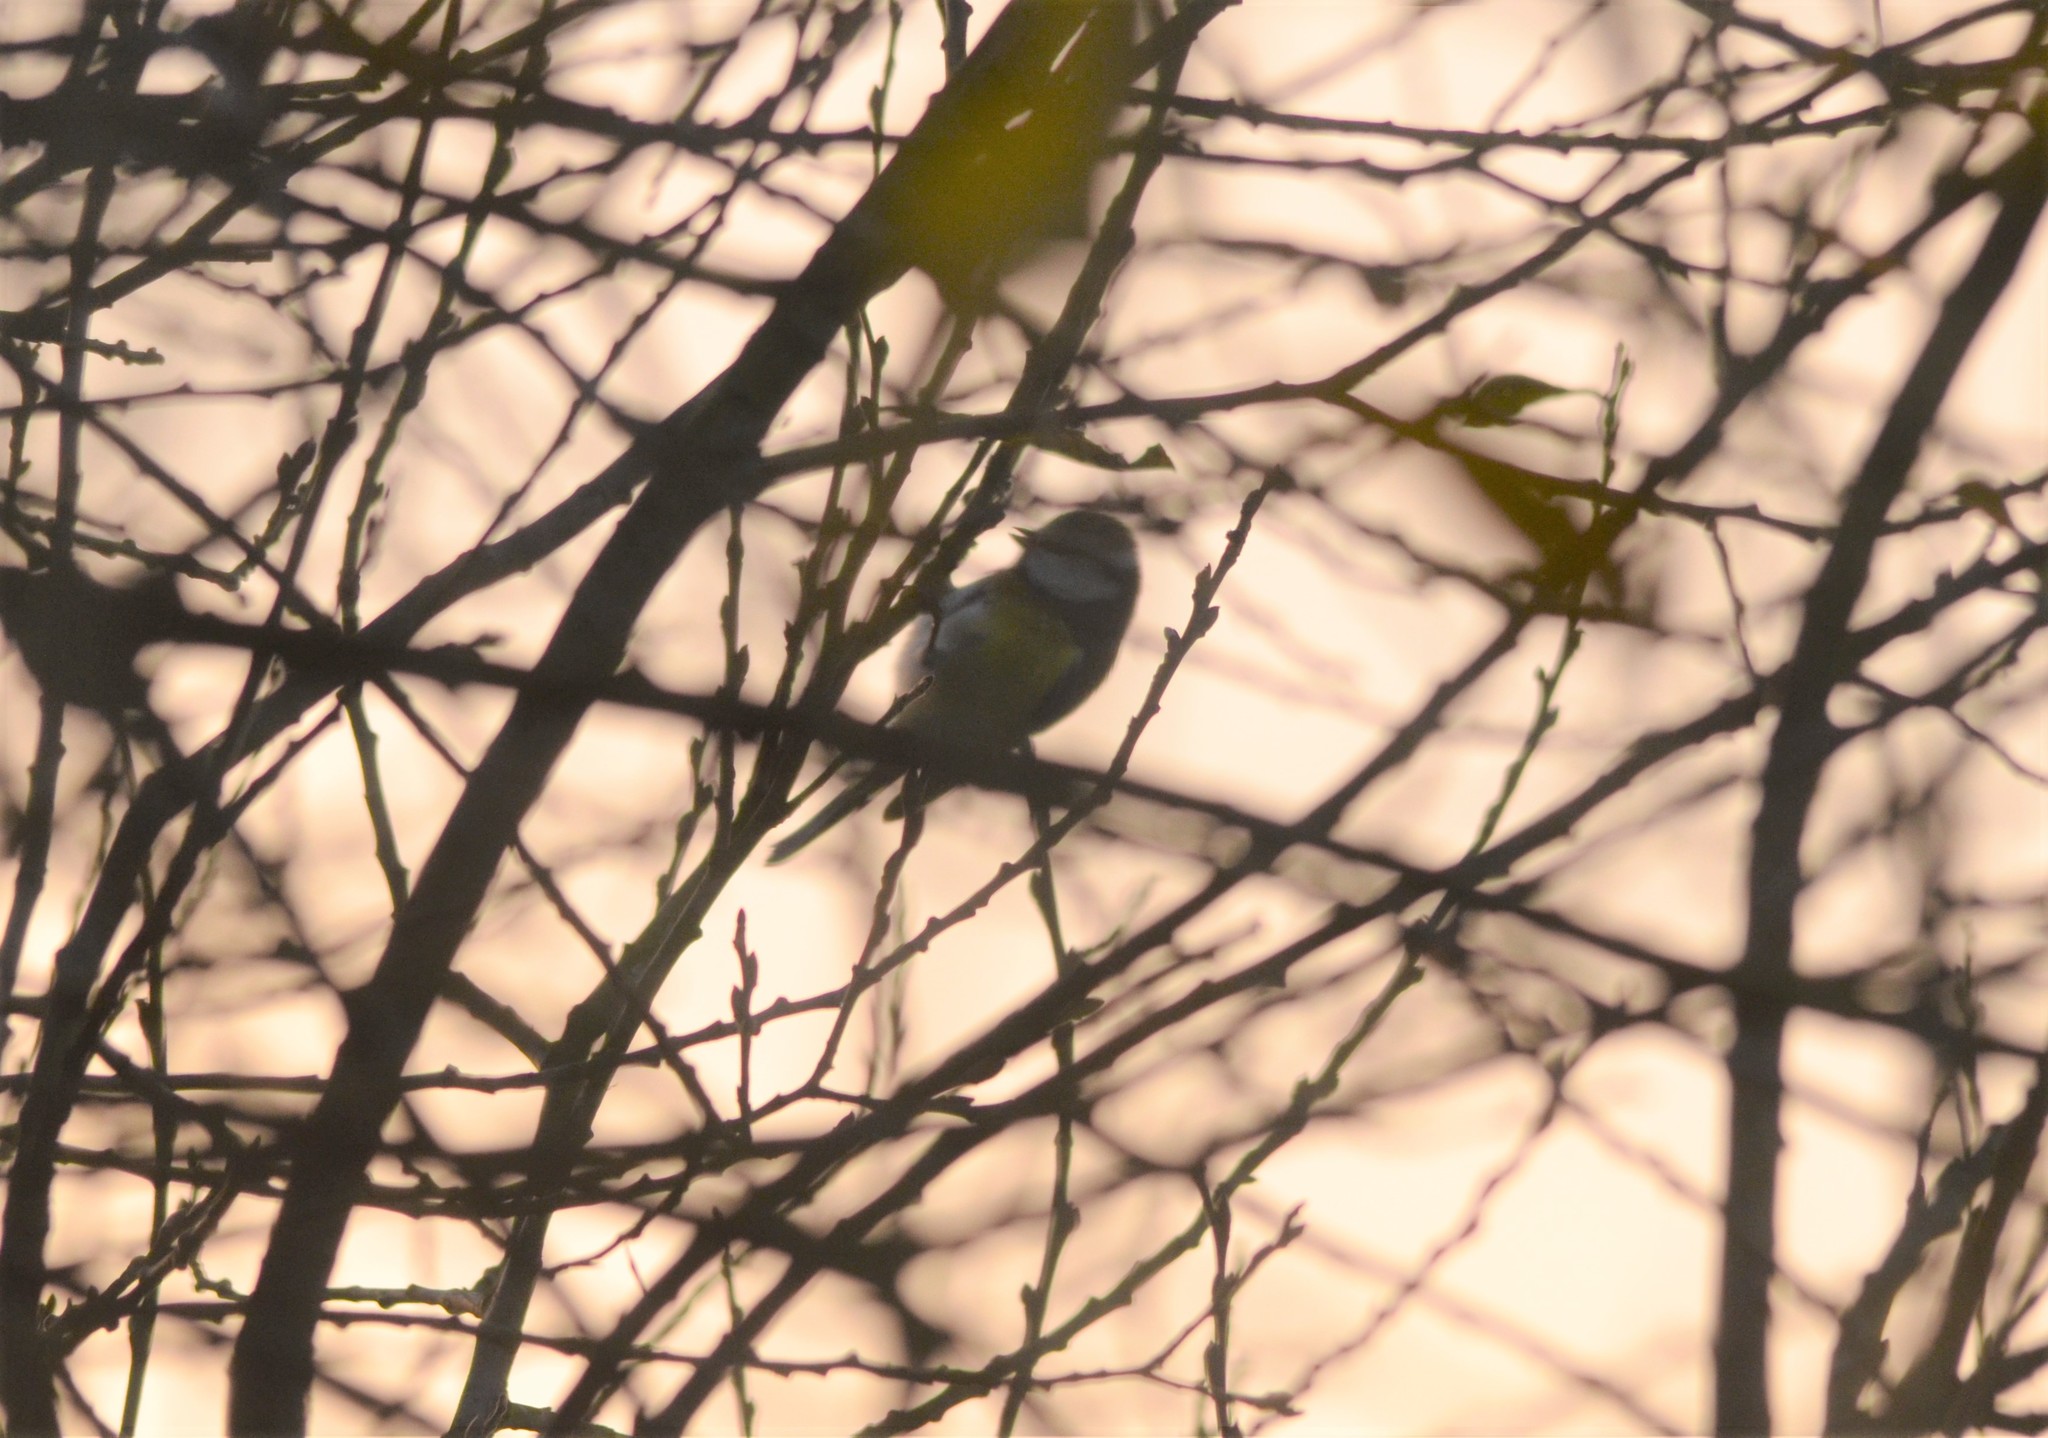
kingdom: Animalia
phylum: Chordata
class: Aves
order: Passeriformes
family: Paridae
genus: Cyanistes
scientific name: Cyanistes caeruleus
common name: Eurasian blue tit
